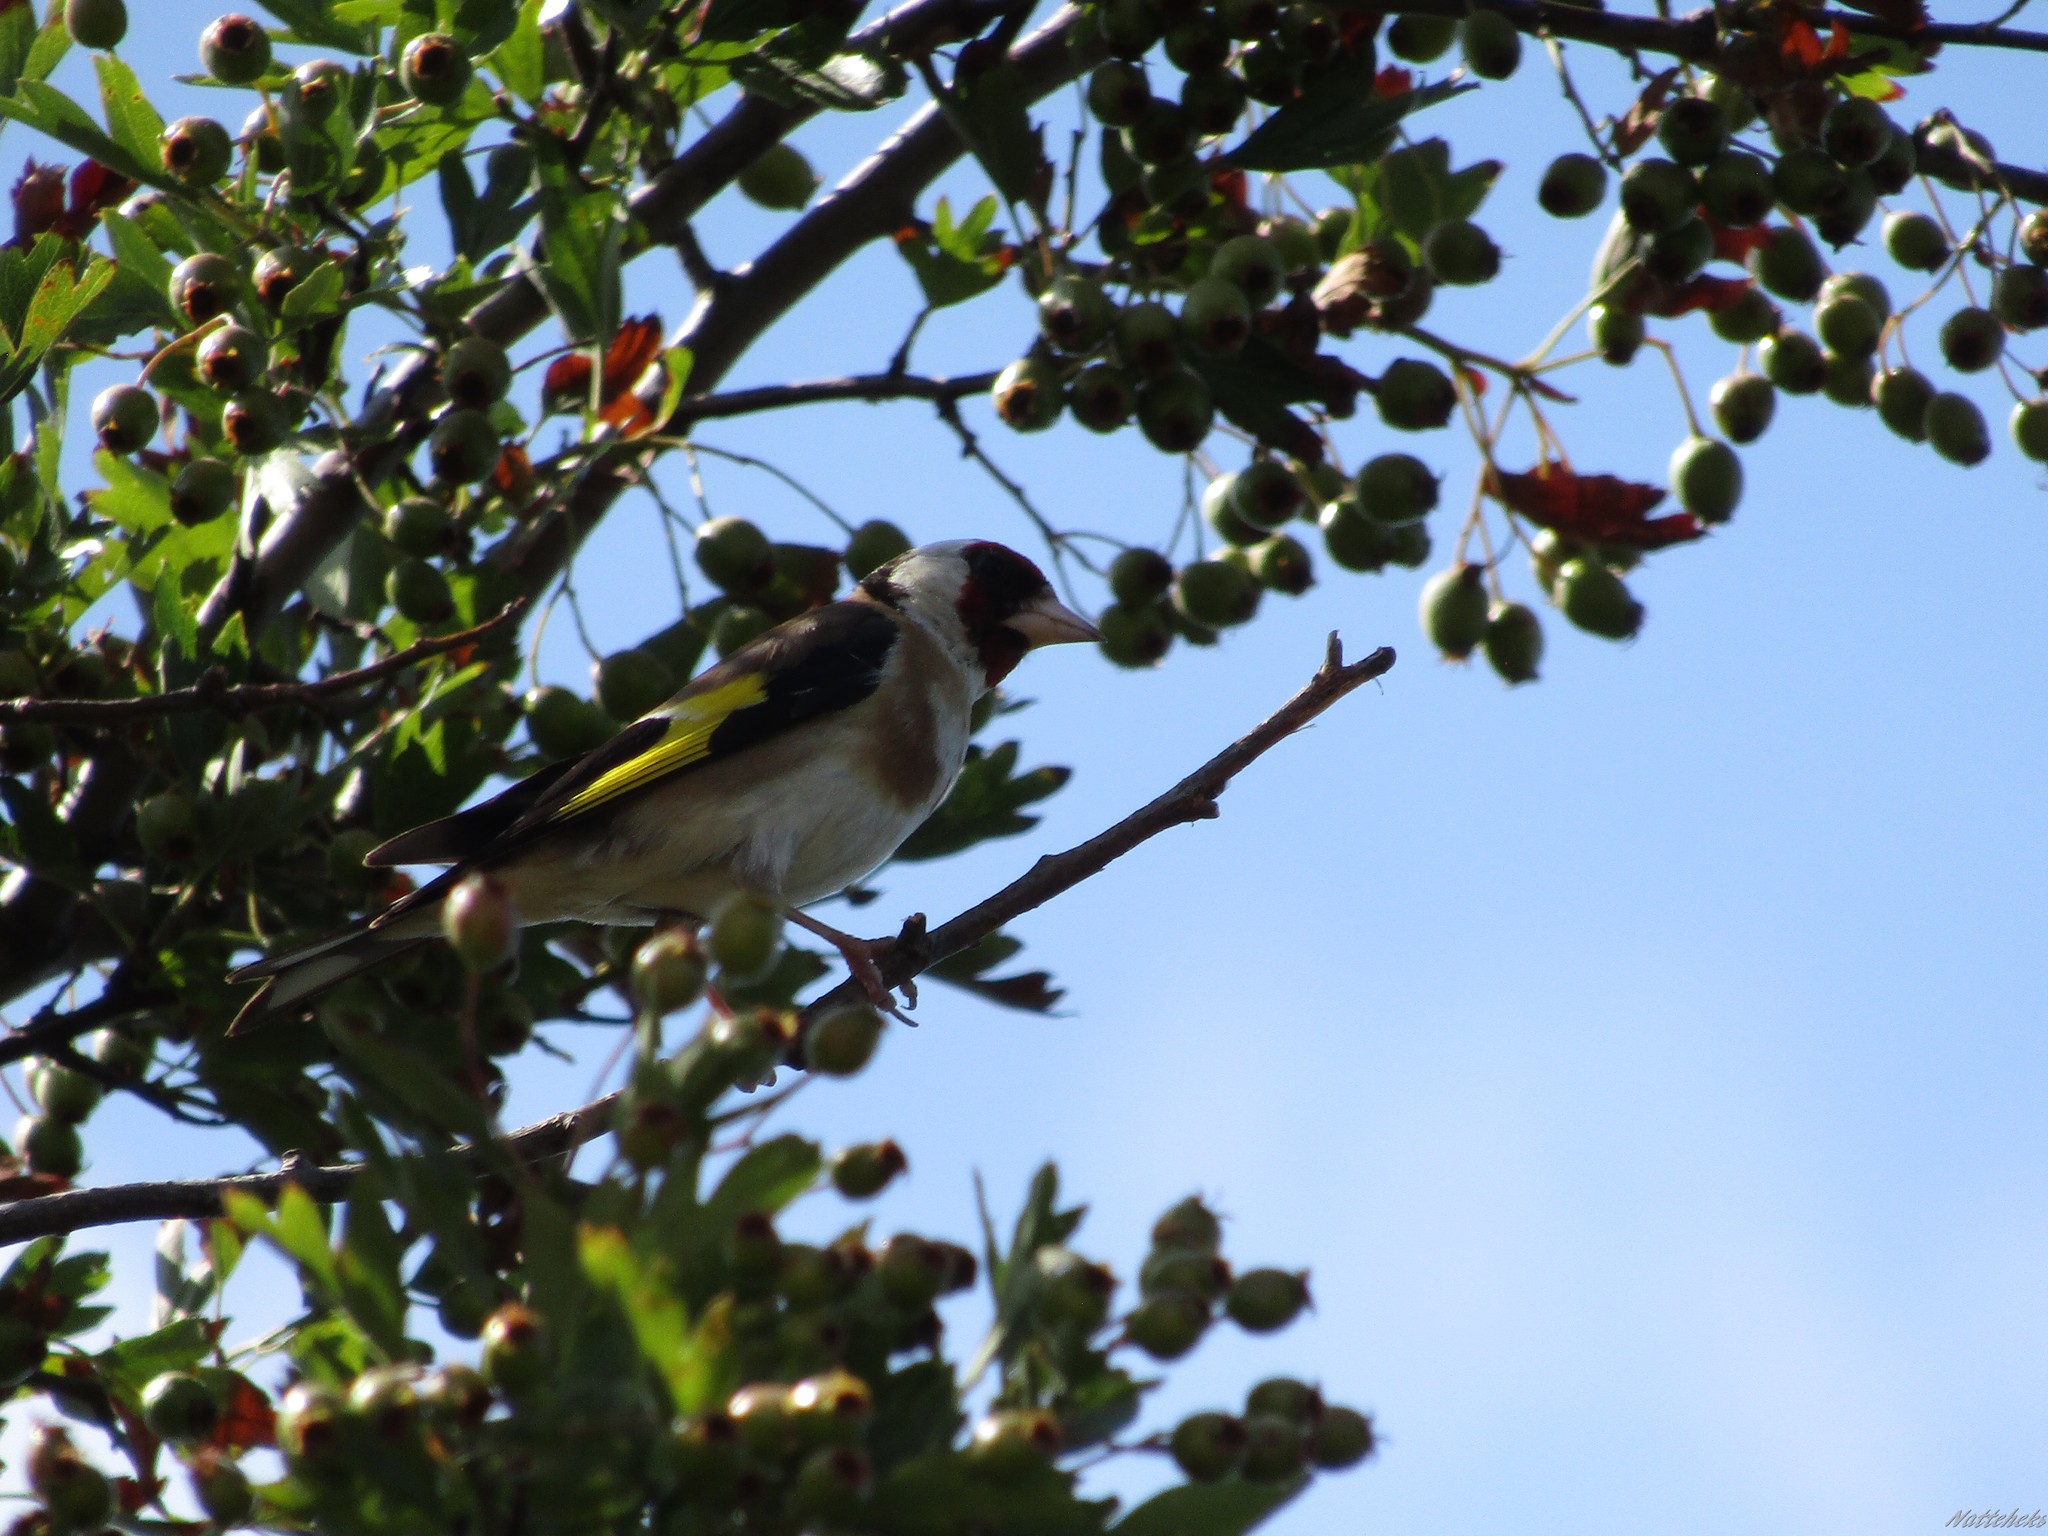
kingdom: Animalia
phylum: Chordata
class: Aves
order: Passeriformes
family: Fringillidae
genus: Carduelis
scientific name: Carduelis carduelis
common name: European goldfinch
